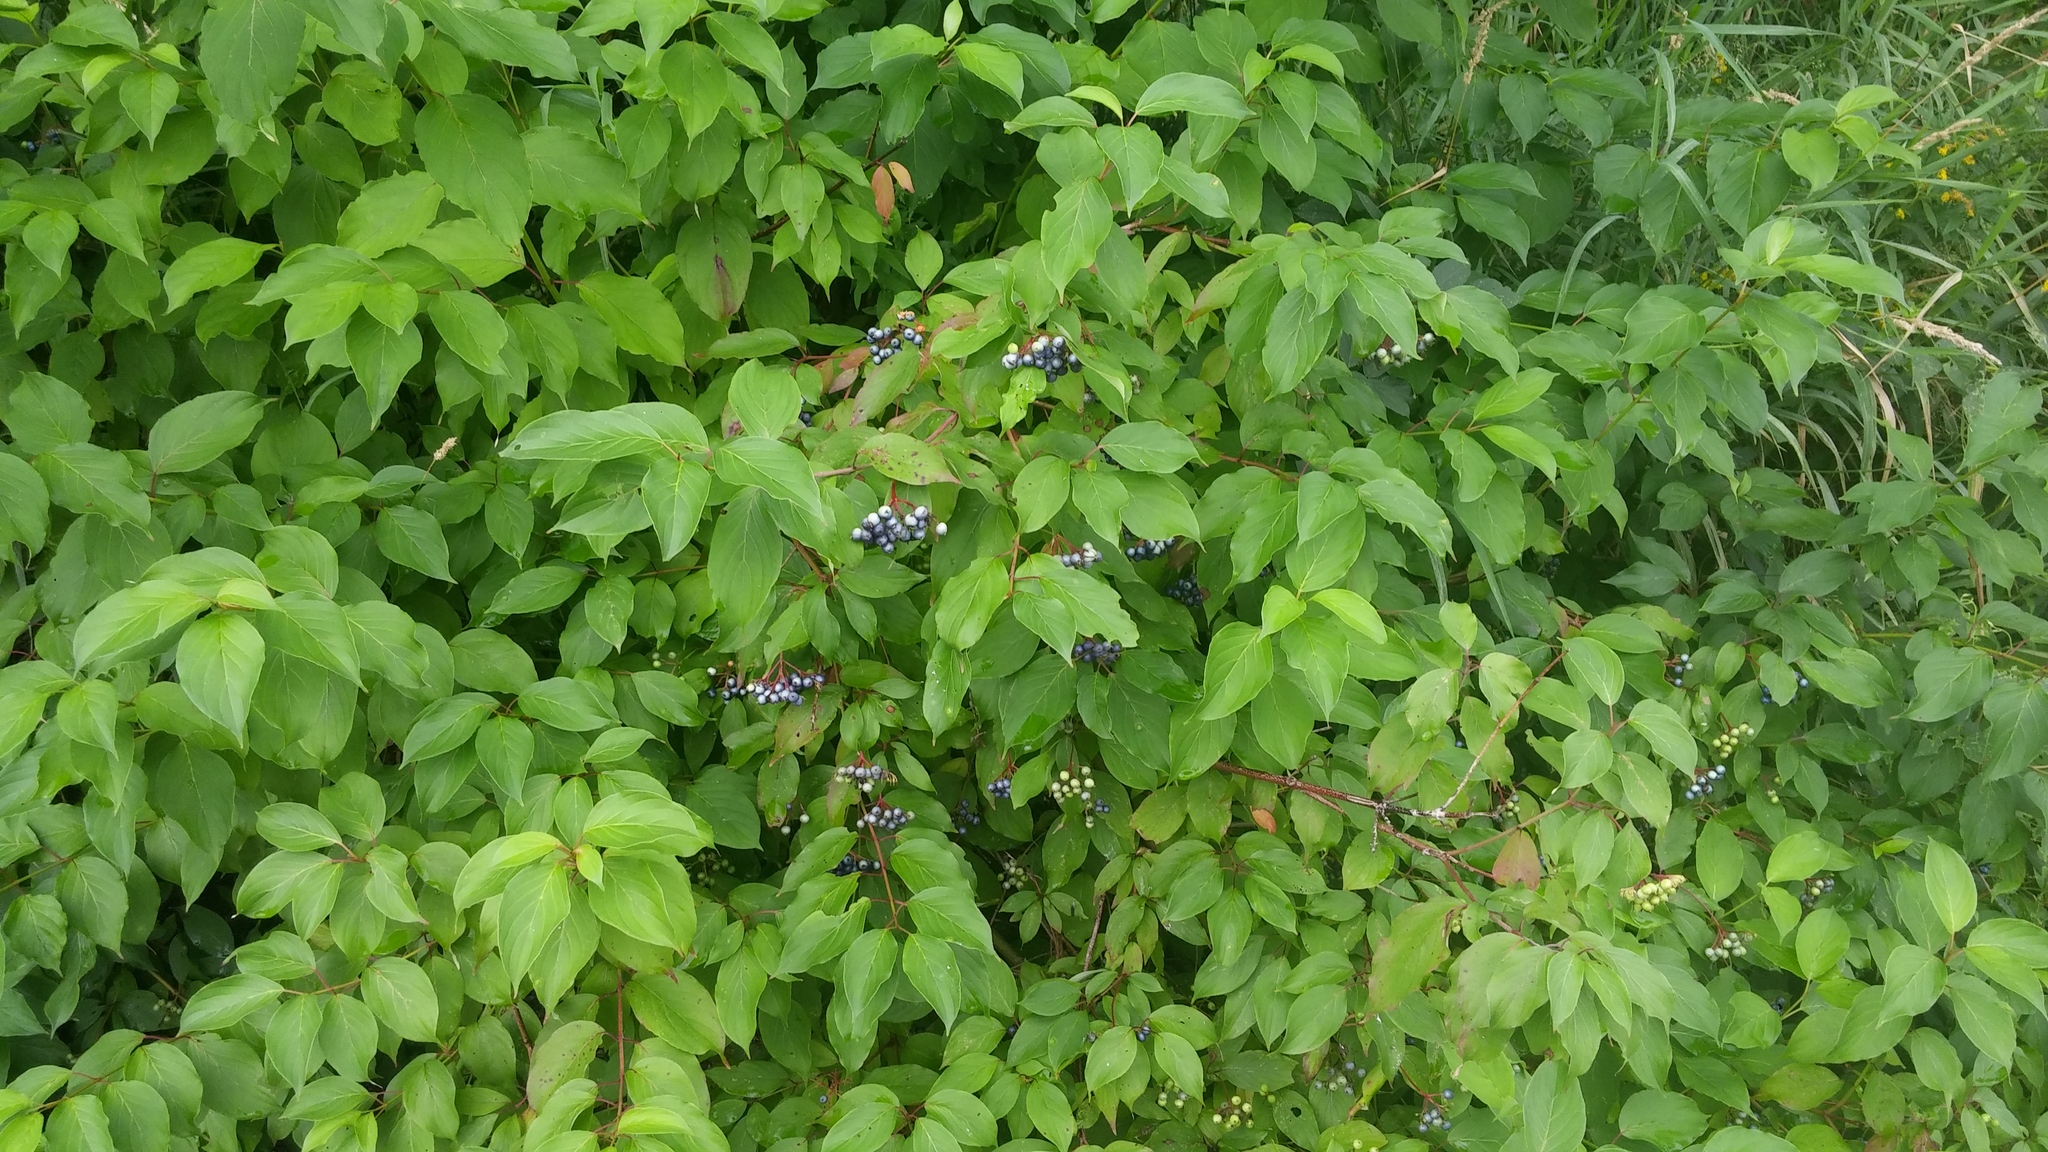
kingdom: Plantae
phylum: Tracheophyta
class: Magnoliopsida
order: Cornales
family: Cornaceae
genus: Cornus
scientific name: Cornus amomum
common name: Silky dogwood
